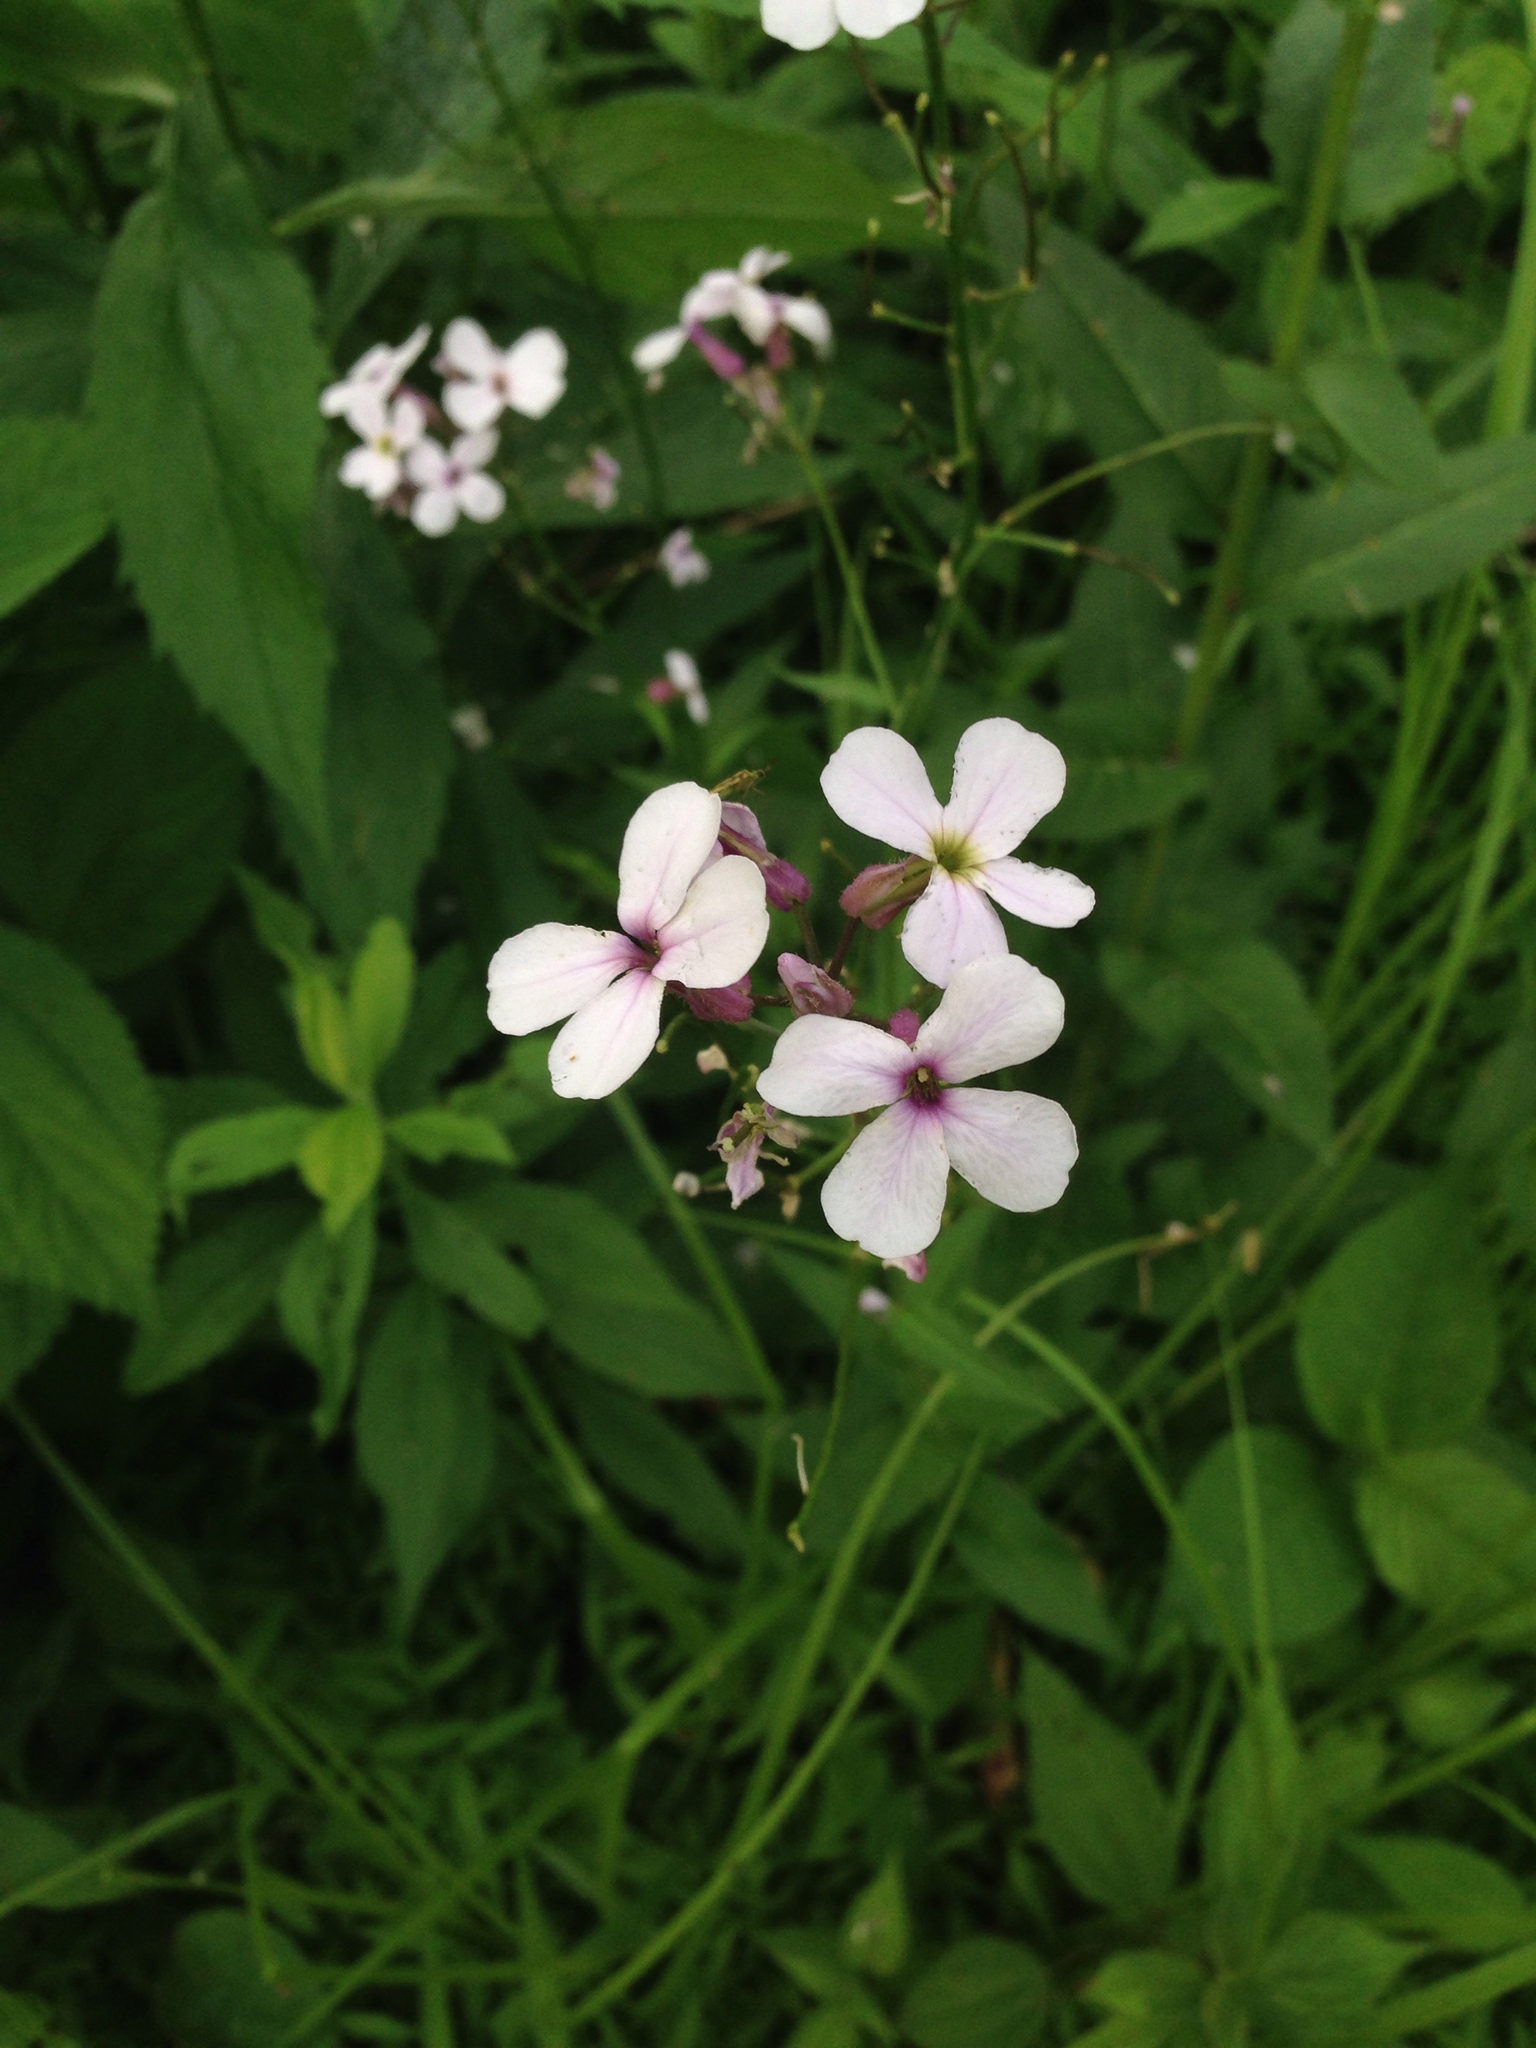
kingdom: Plantae
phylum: Tracheophyta
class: Magnoliopsida
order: Brassicales
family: Brassicaceae
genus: Hesperis
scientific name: Hesperis matronalis
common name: Dame's-violet
